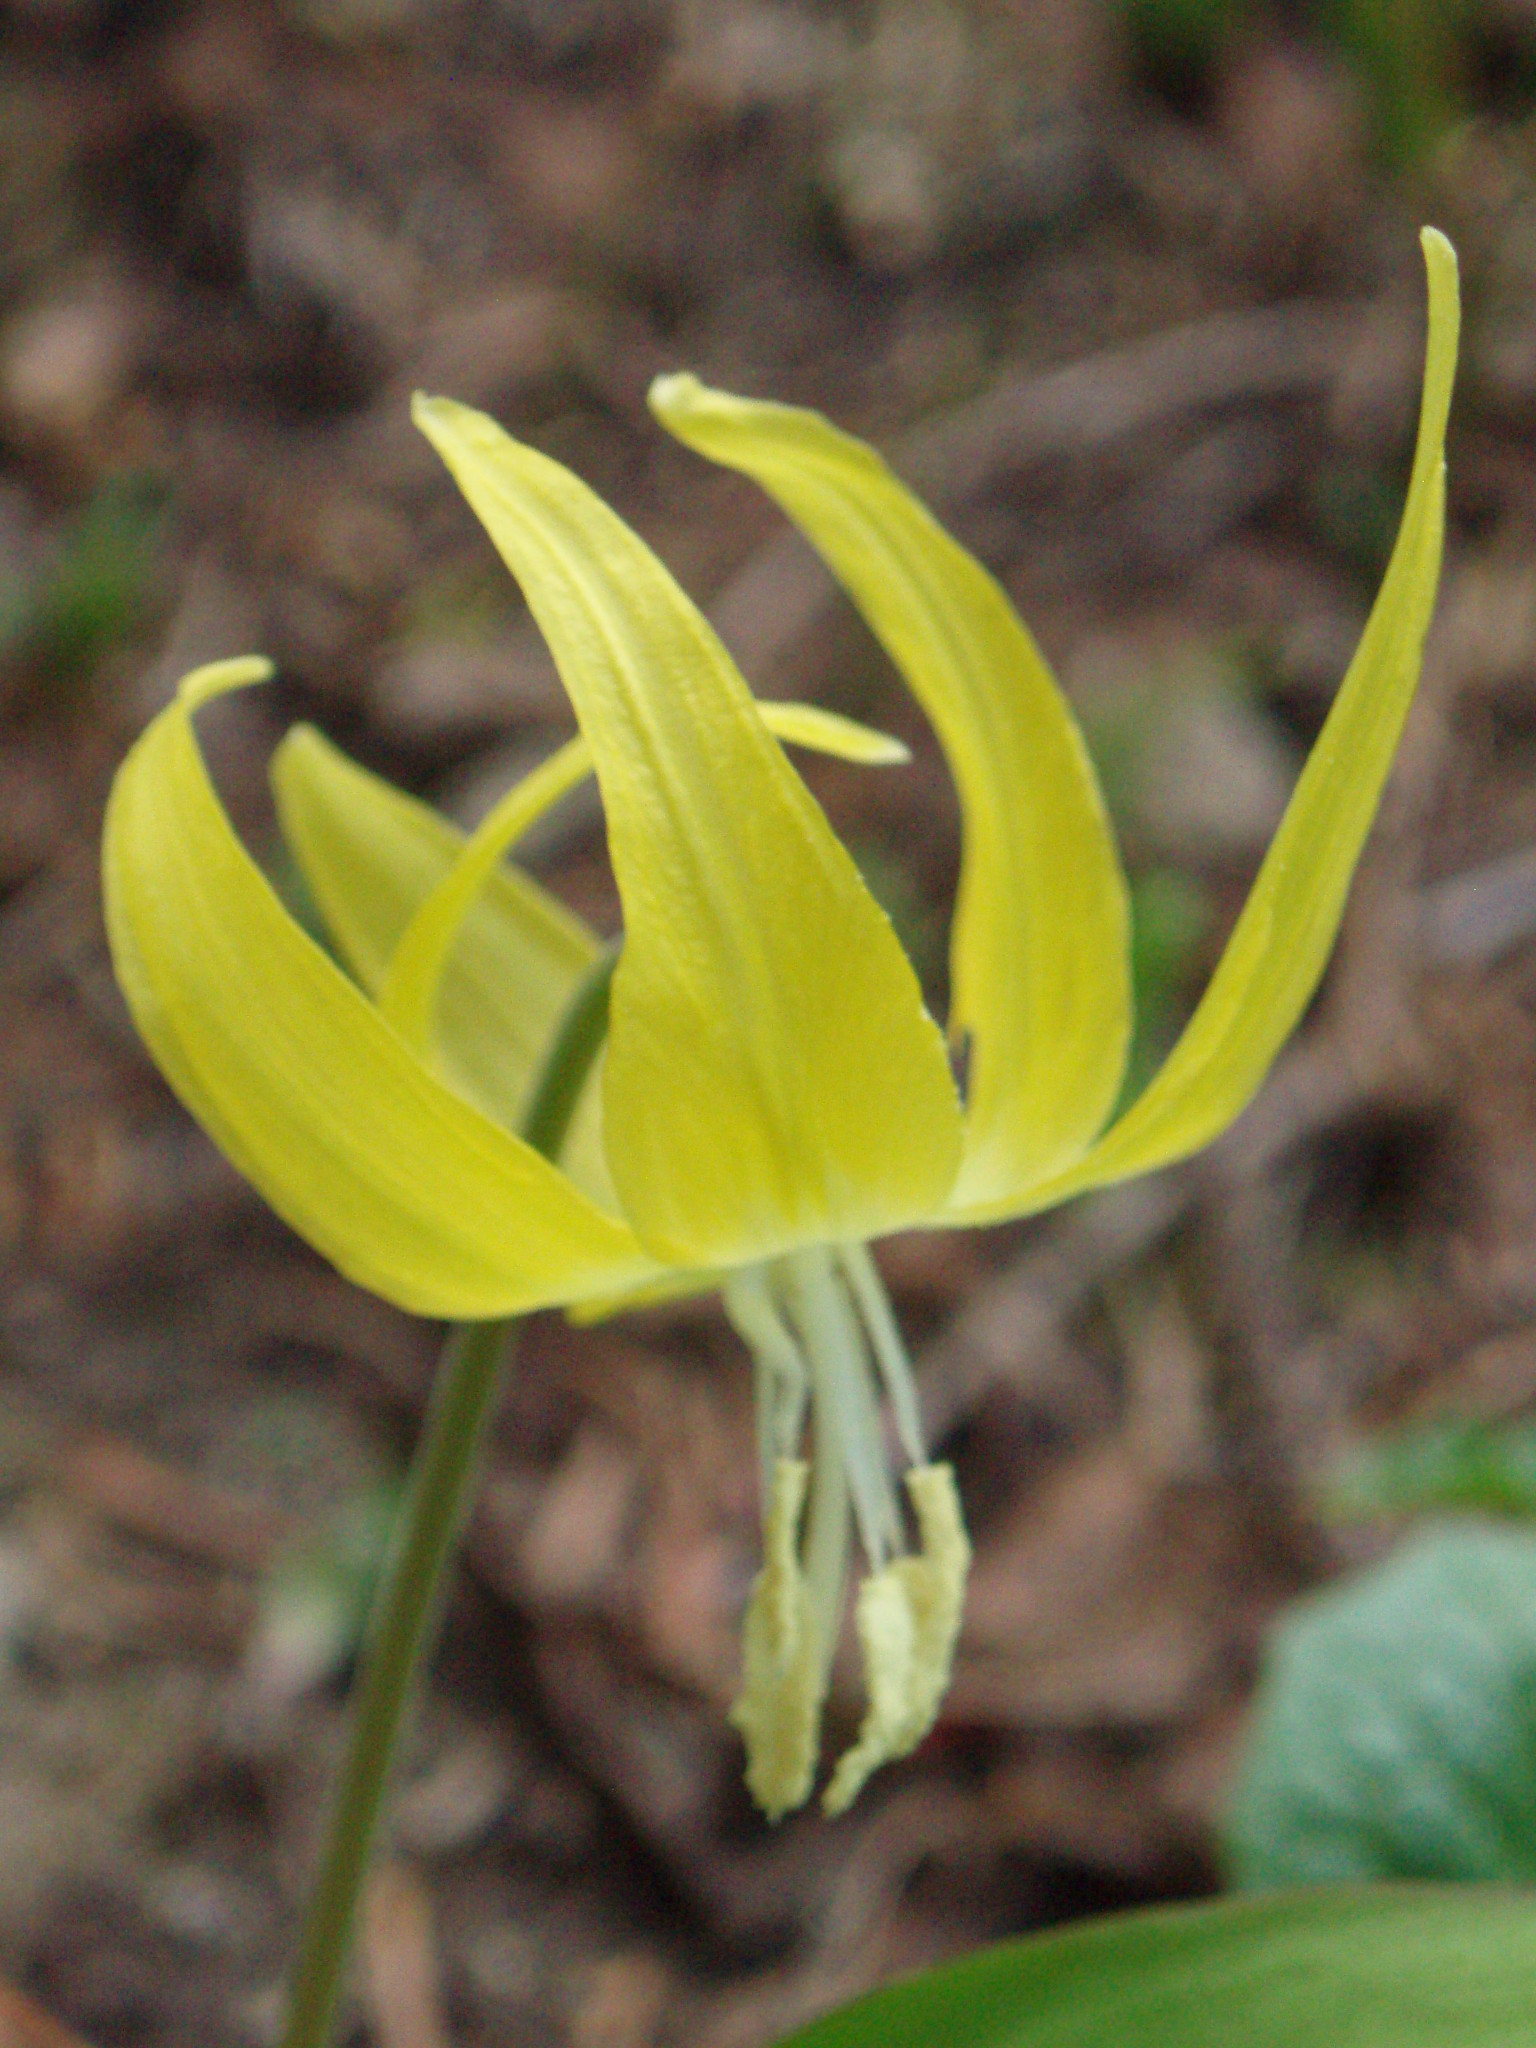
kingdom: Plantae
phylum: Tracheophyta
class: Liliopsida
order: Liliales
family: Liliaceae
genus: Erythronium
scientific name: Erythronium grandiflorum
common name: Avalanche-lily
